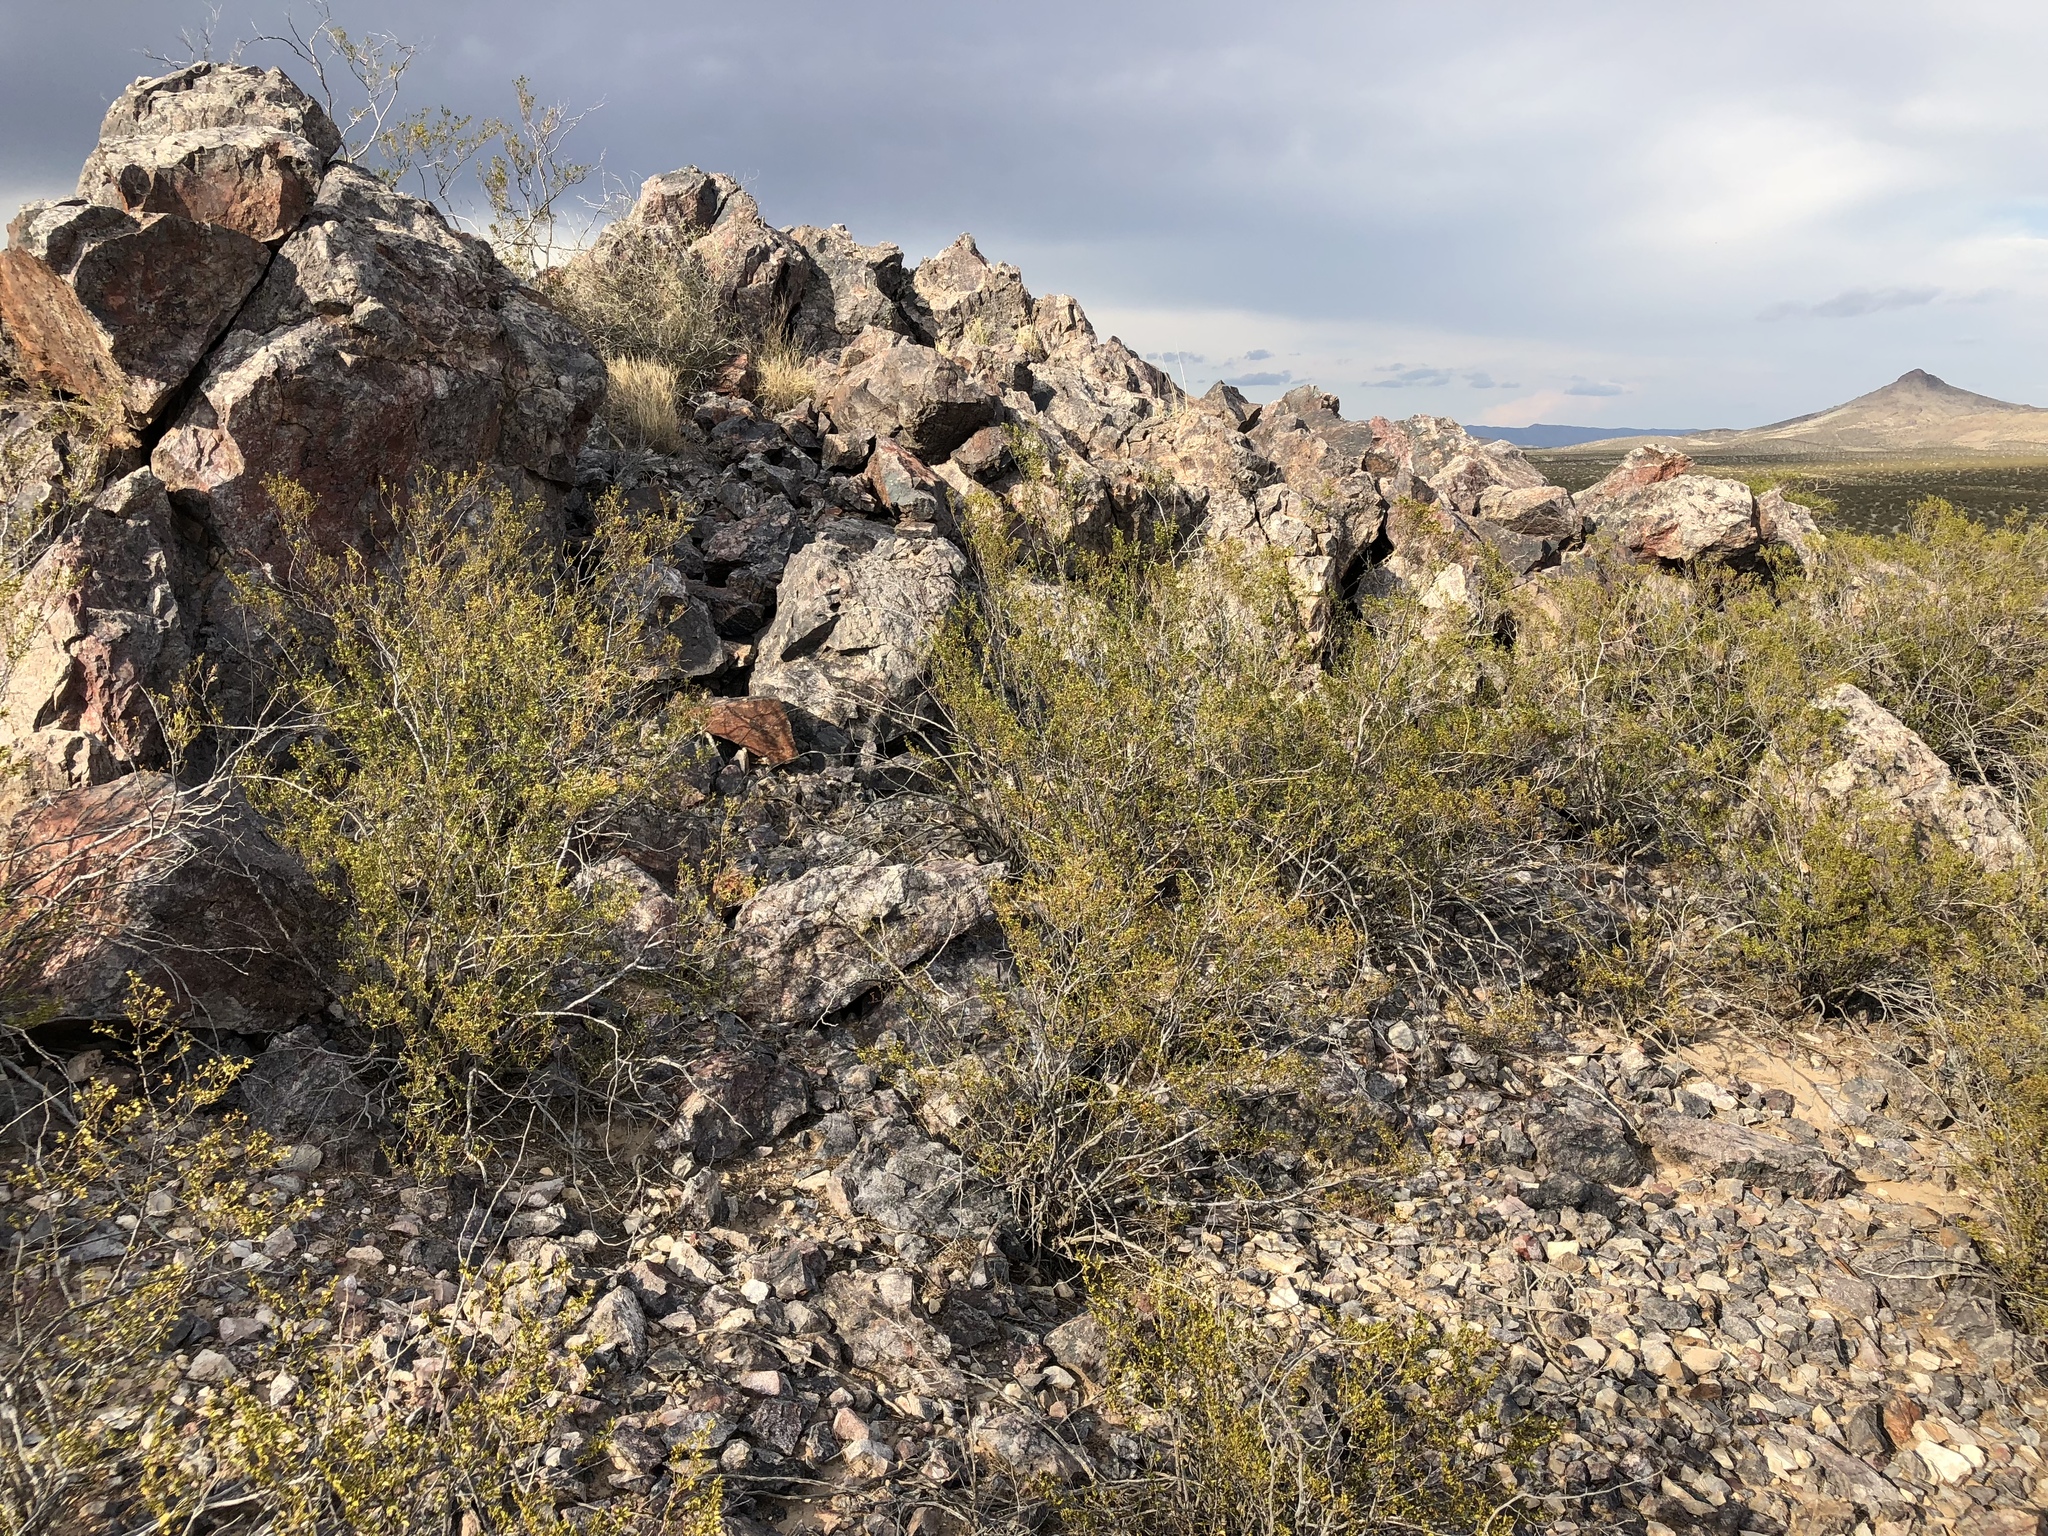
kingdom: Plantae
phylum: Tracheophyta
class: Magnoliopsida
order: Zygophyllales
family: Zygophyllaceae
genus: Larrea
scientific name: Larrea tridentata
